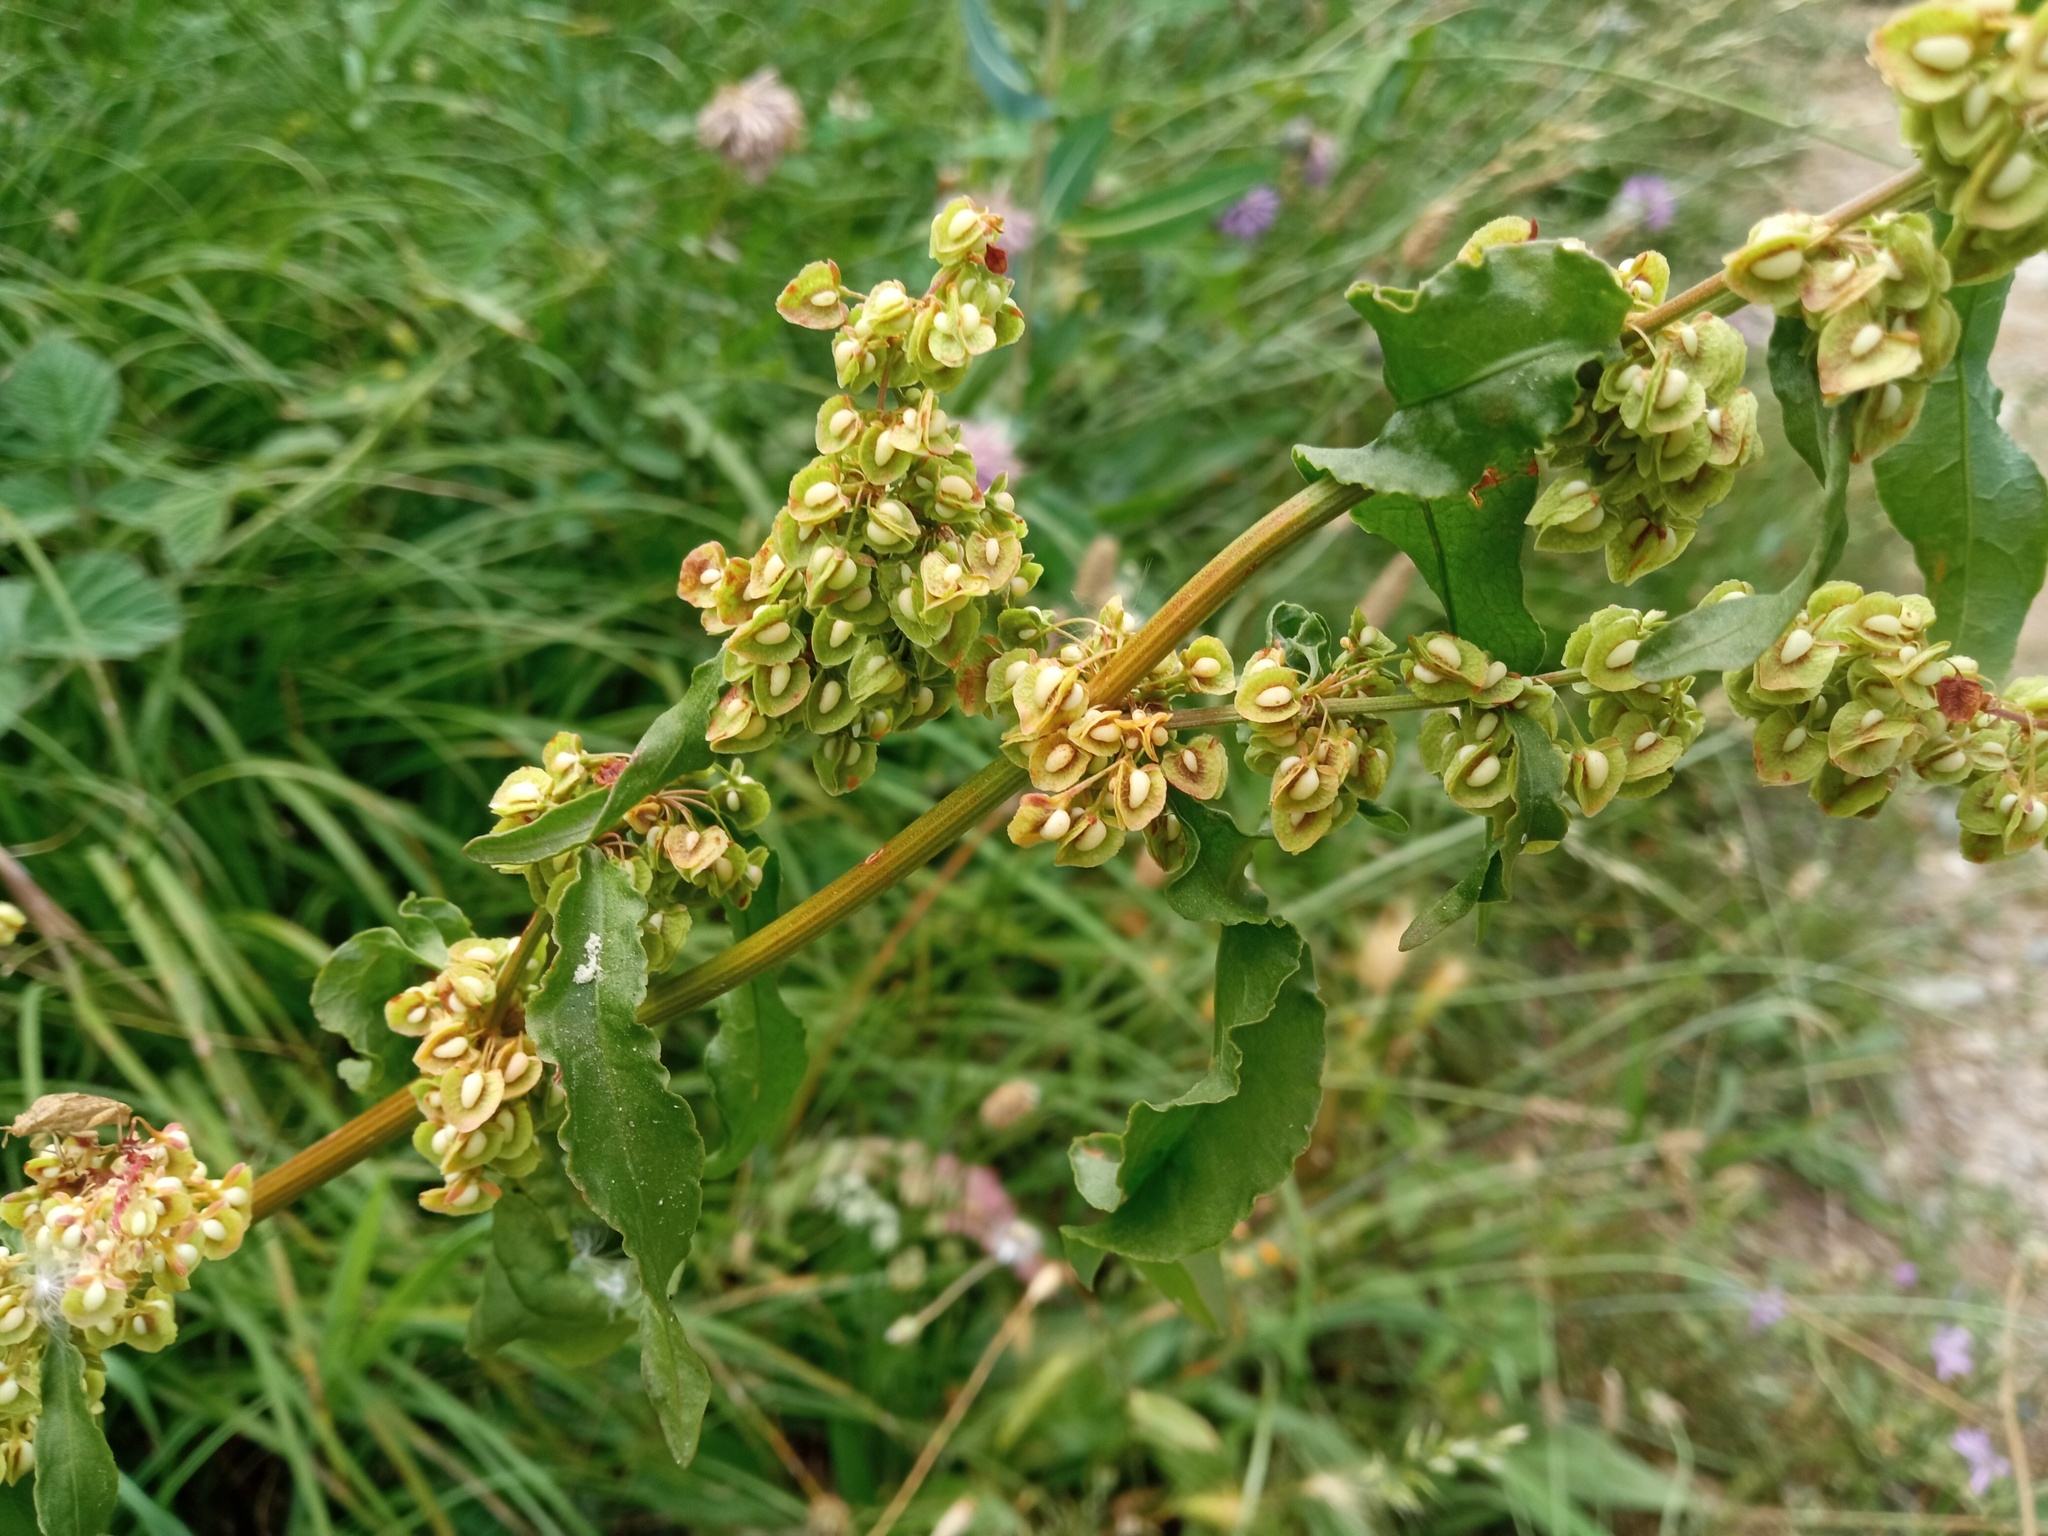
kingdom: Plantae
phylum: Tracheophyta
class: Magnoliopsida
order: Caryophyllales
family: Polygonaceae
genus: Rumex
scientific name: Rumex crispus
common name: Curled dock
